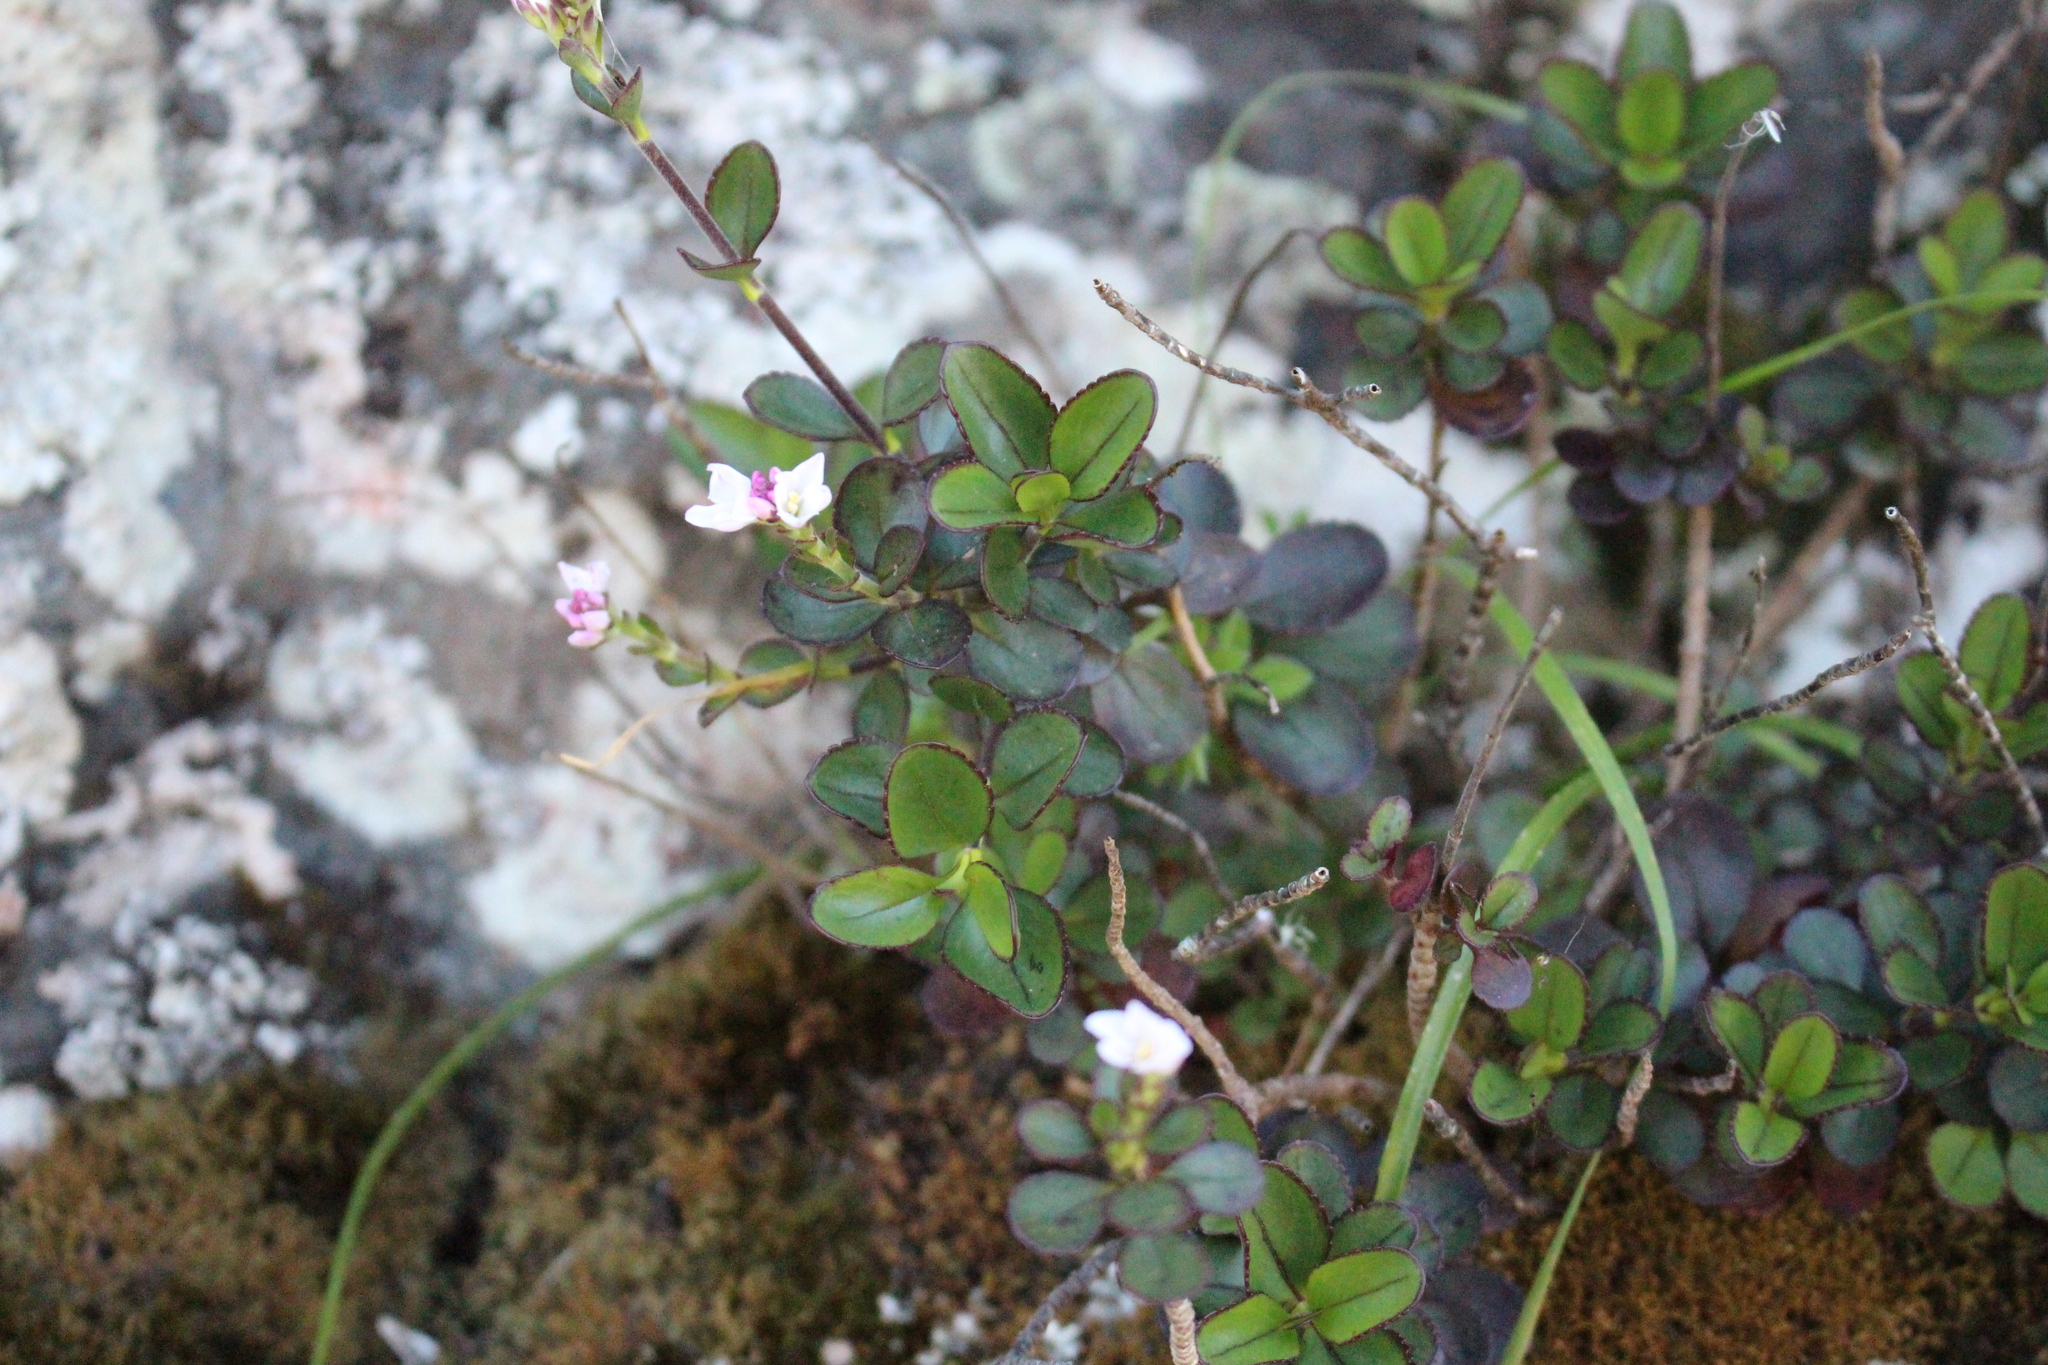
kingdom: Plantae
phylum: Tracheophyta
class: Magnoliopsida
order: Lamiales
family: Plantaginaceae
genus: Veronica
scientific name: Veronica lavaudiana
